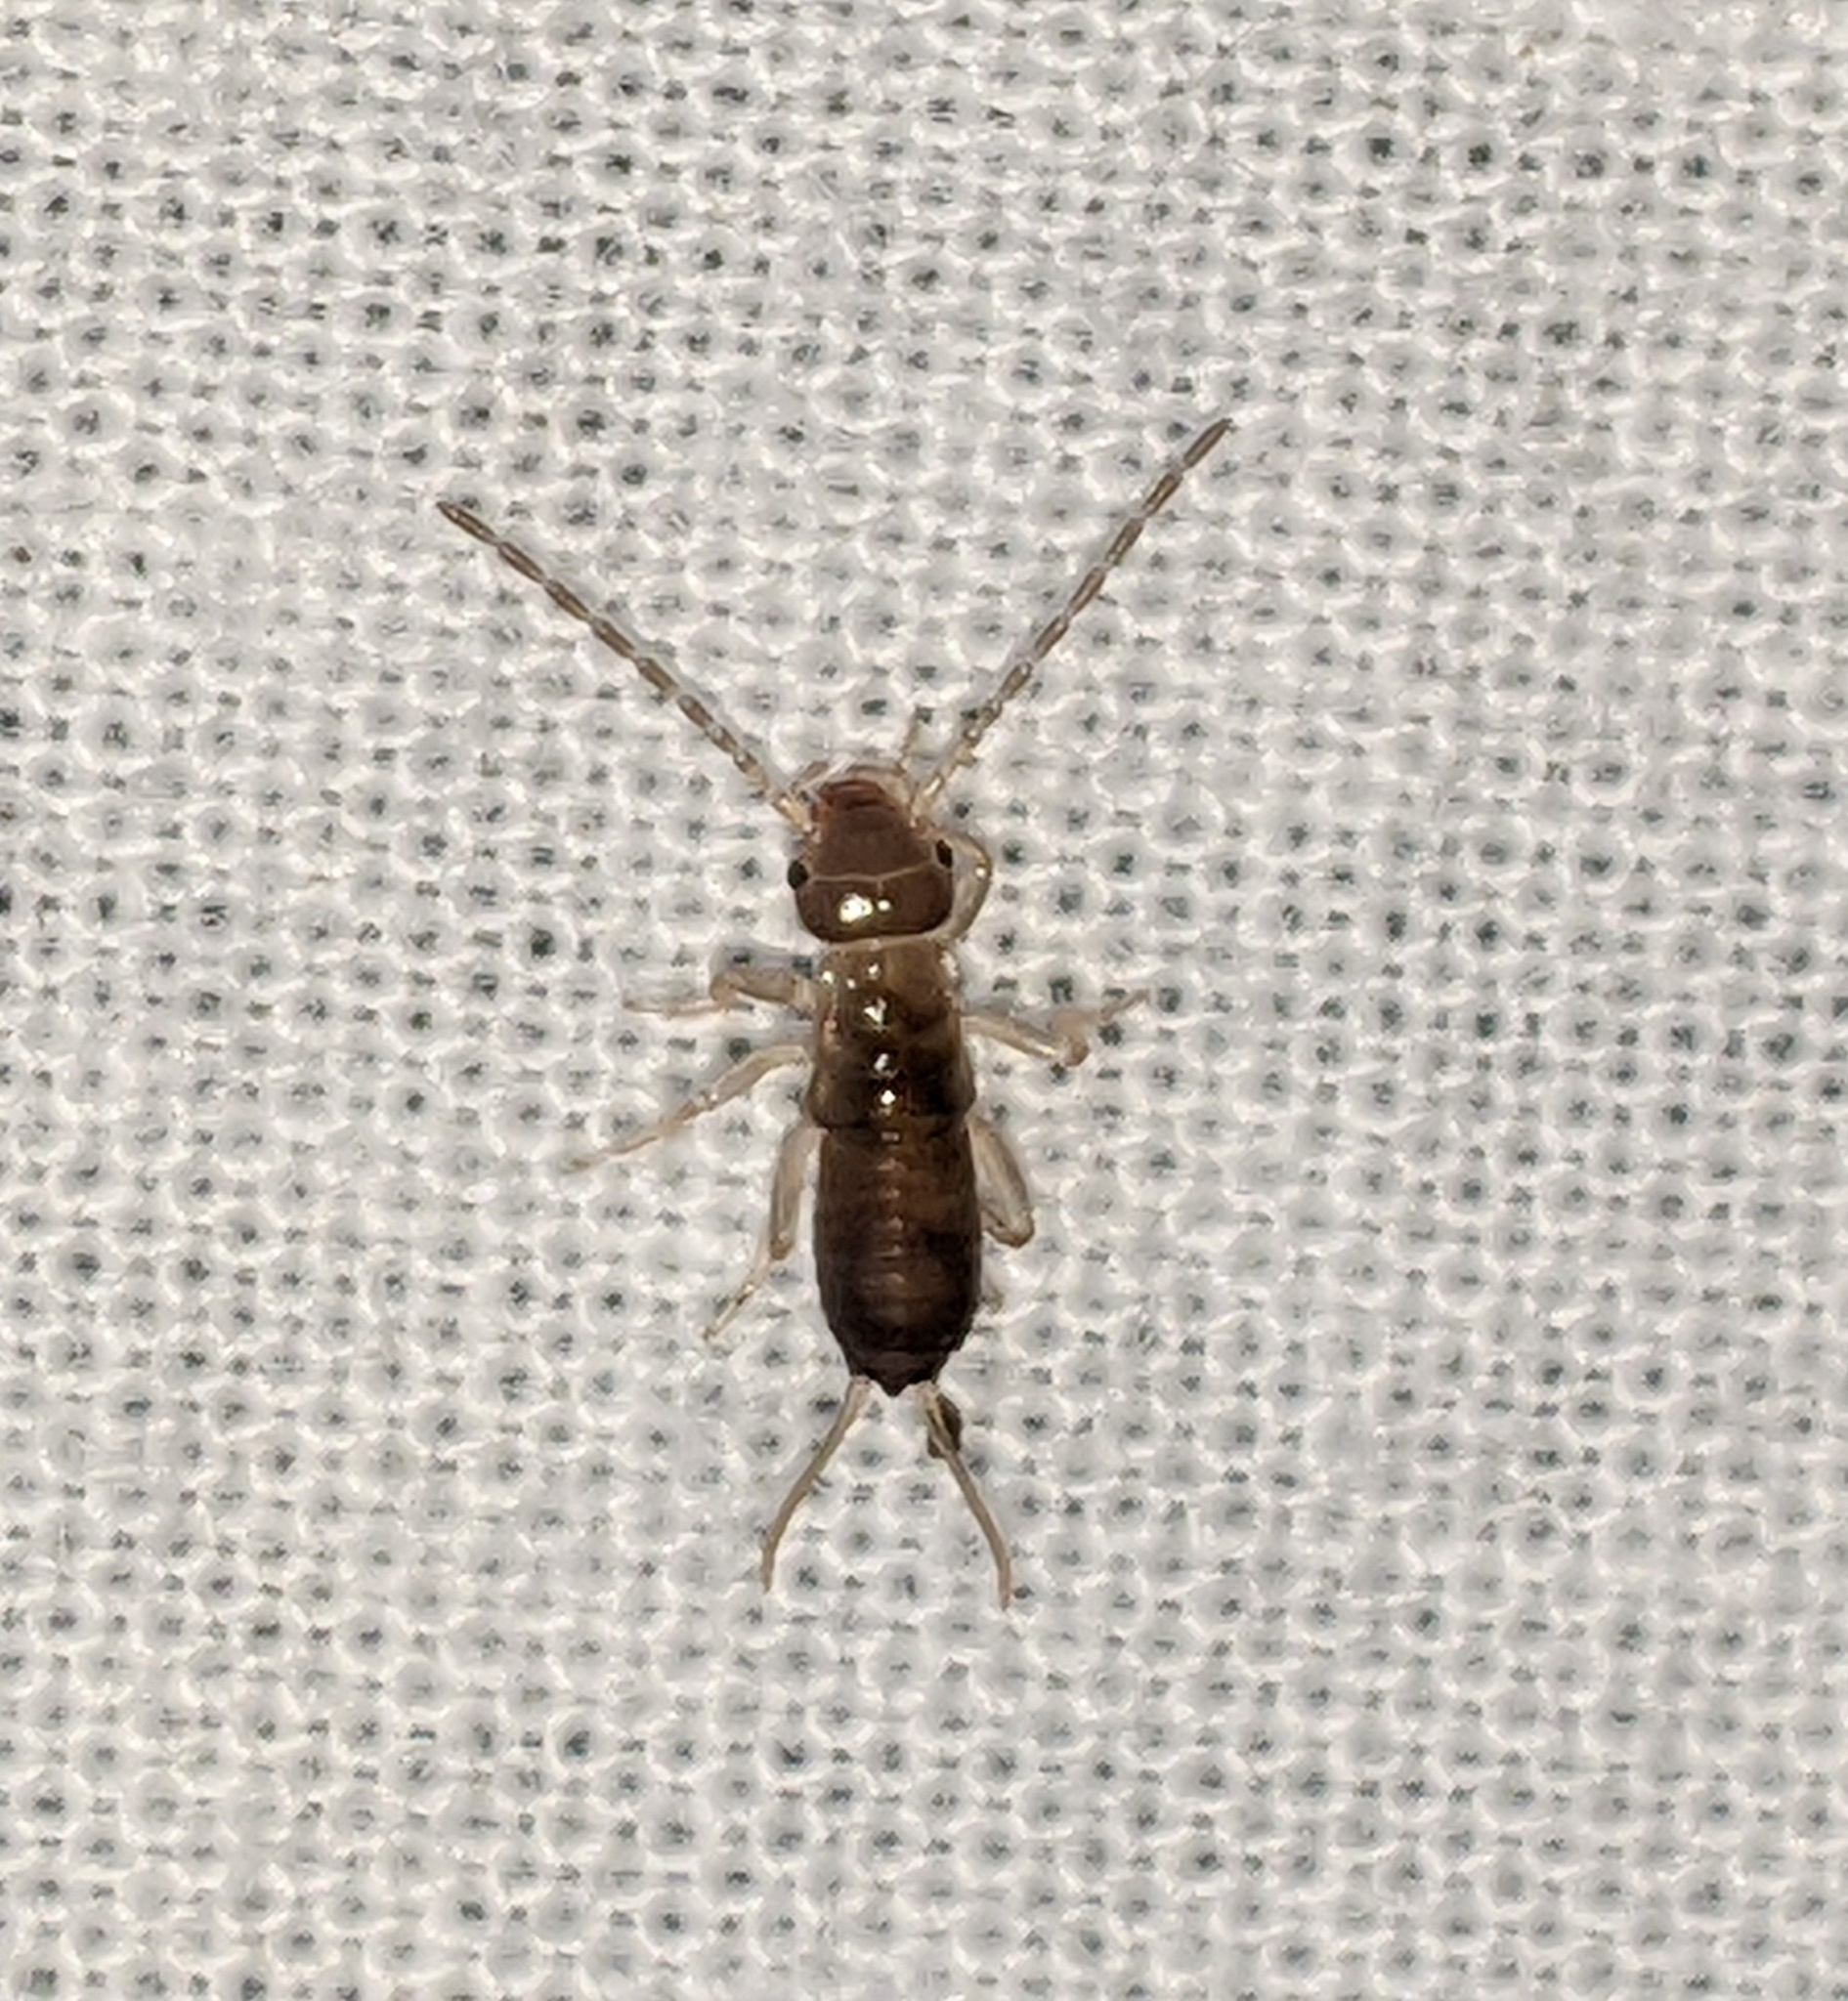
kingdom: Animalia
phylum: Arthropoda
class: Insecta
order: Dermaptera
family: Forficulidae
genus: Forficula
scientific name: Forficula
